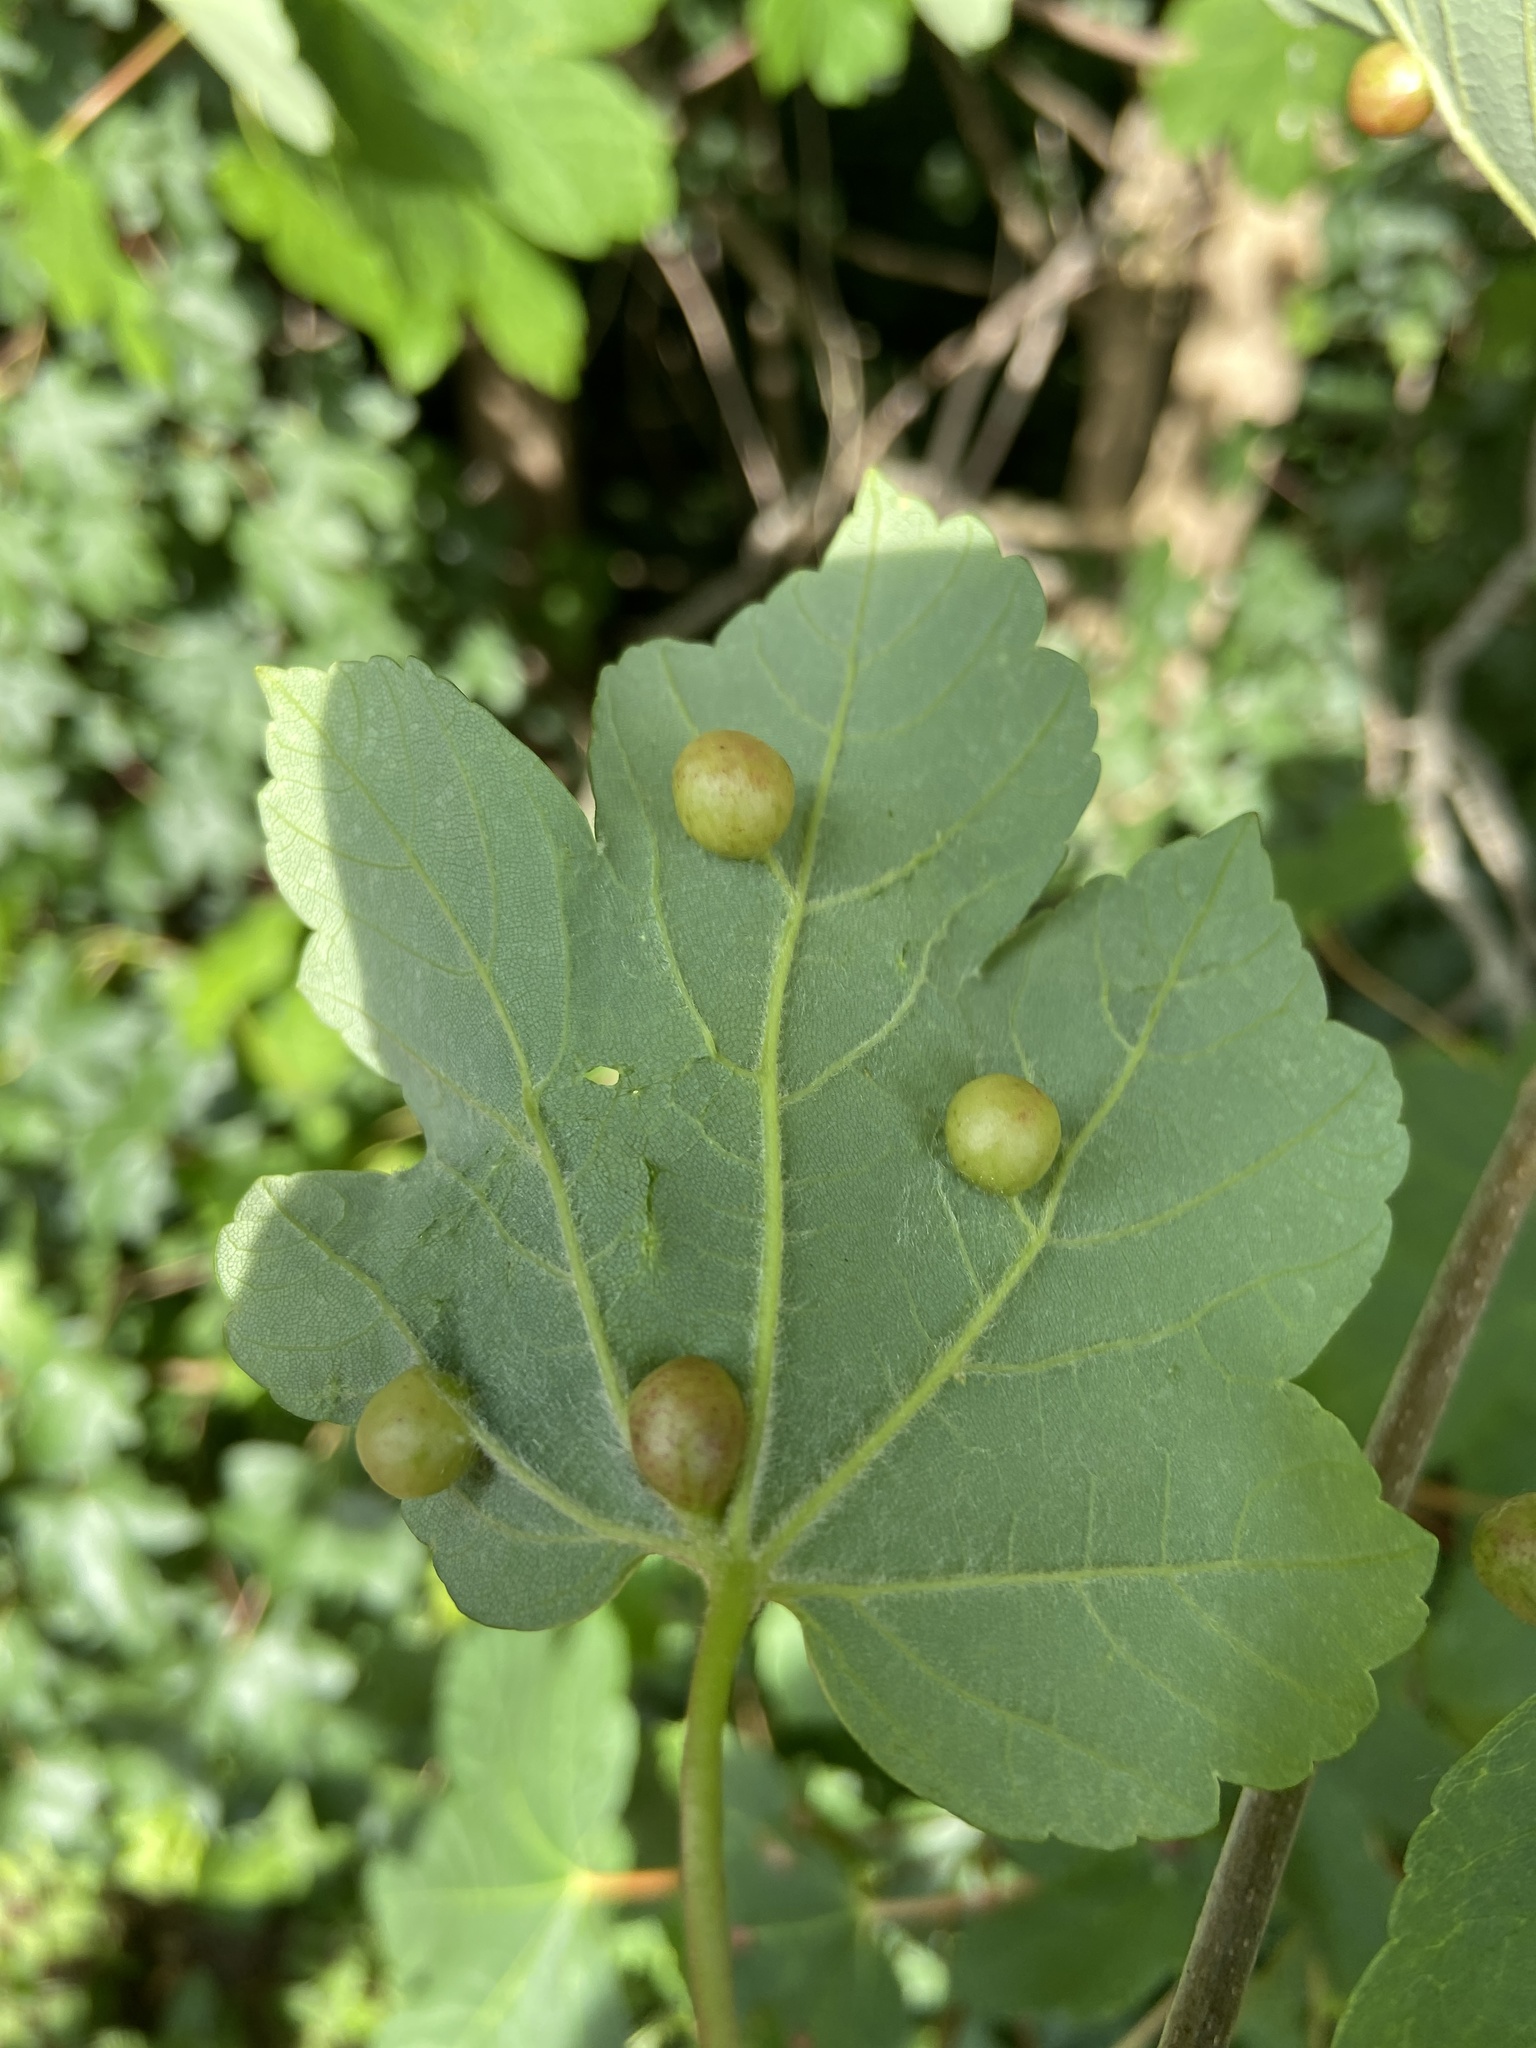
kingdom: Animalia
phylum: Arthropoda
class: Insecta
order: Hymenoptera
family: Cynipidae
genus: Pediaspis
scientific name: Pediaspis aceris
